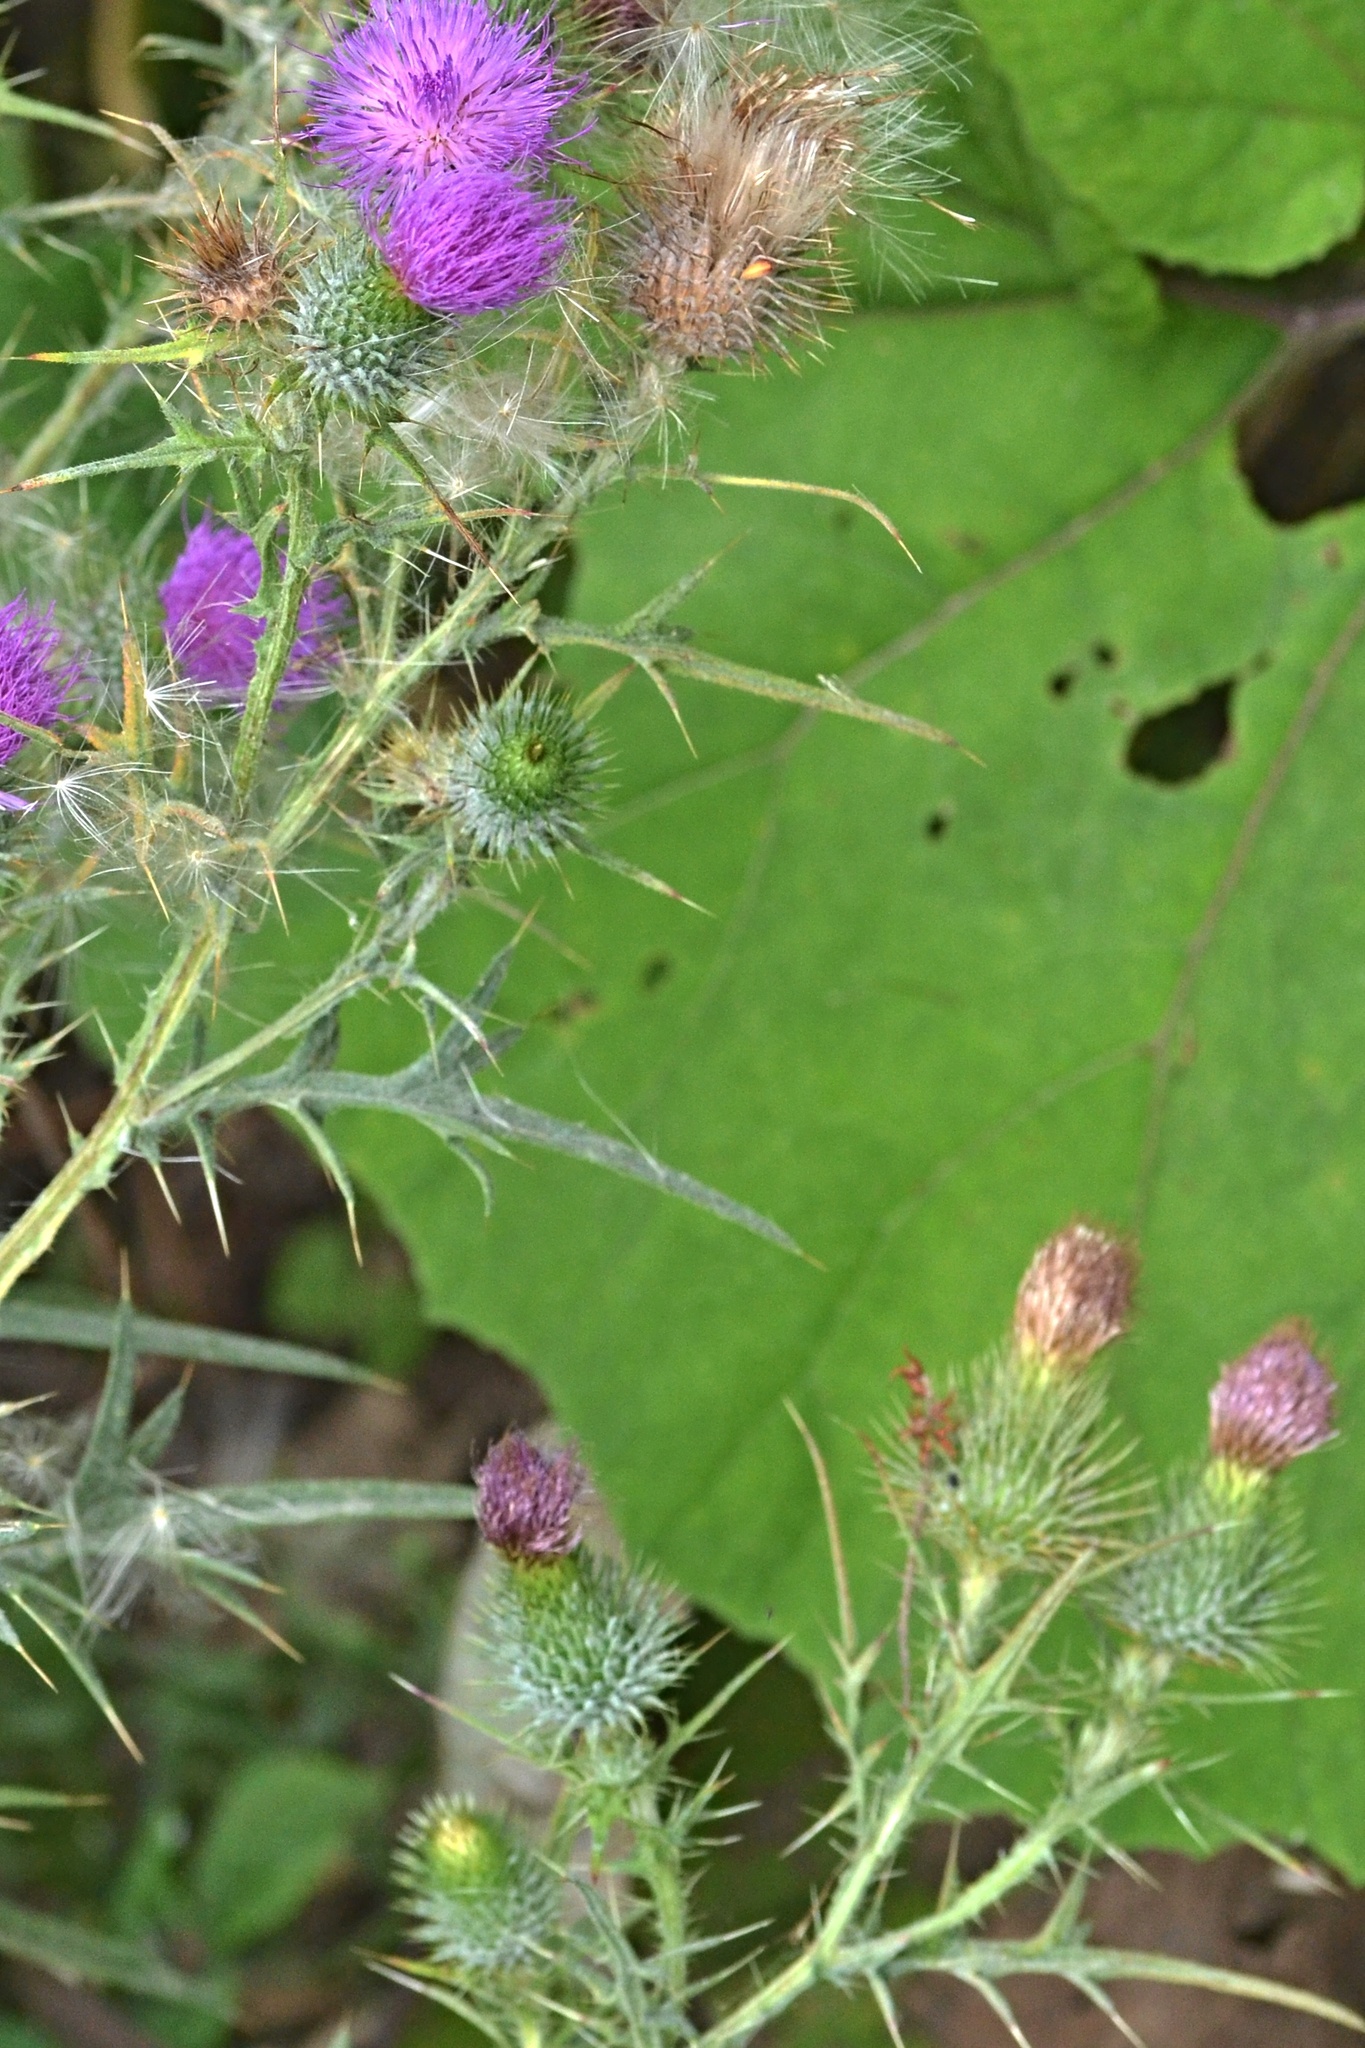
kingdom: Plantae
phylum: Tracheophyta
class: Magnoliopsida
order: Asterales
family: Asteraceae
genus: Cirsium
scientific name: Cirsium vulgare
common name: Bull thistle
